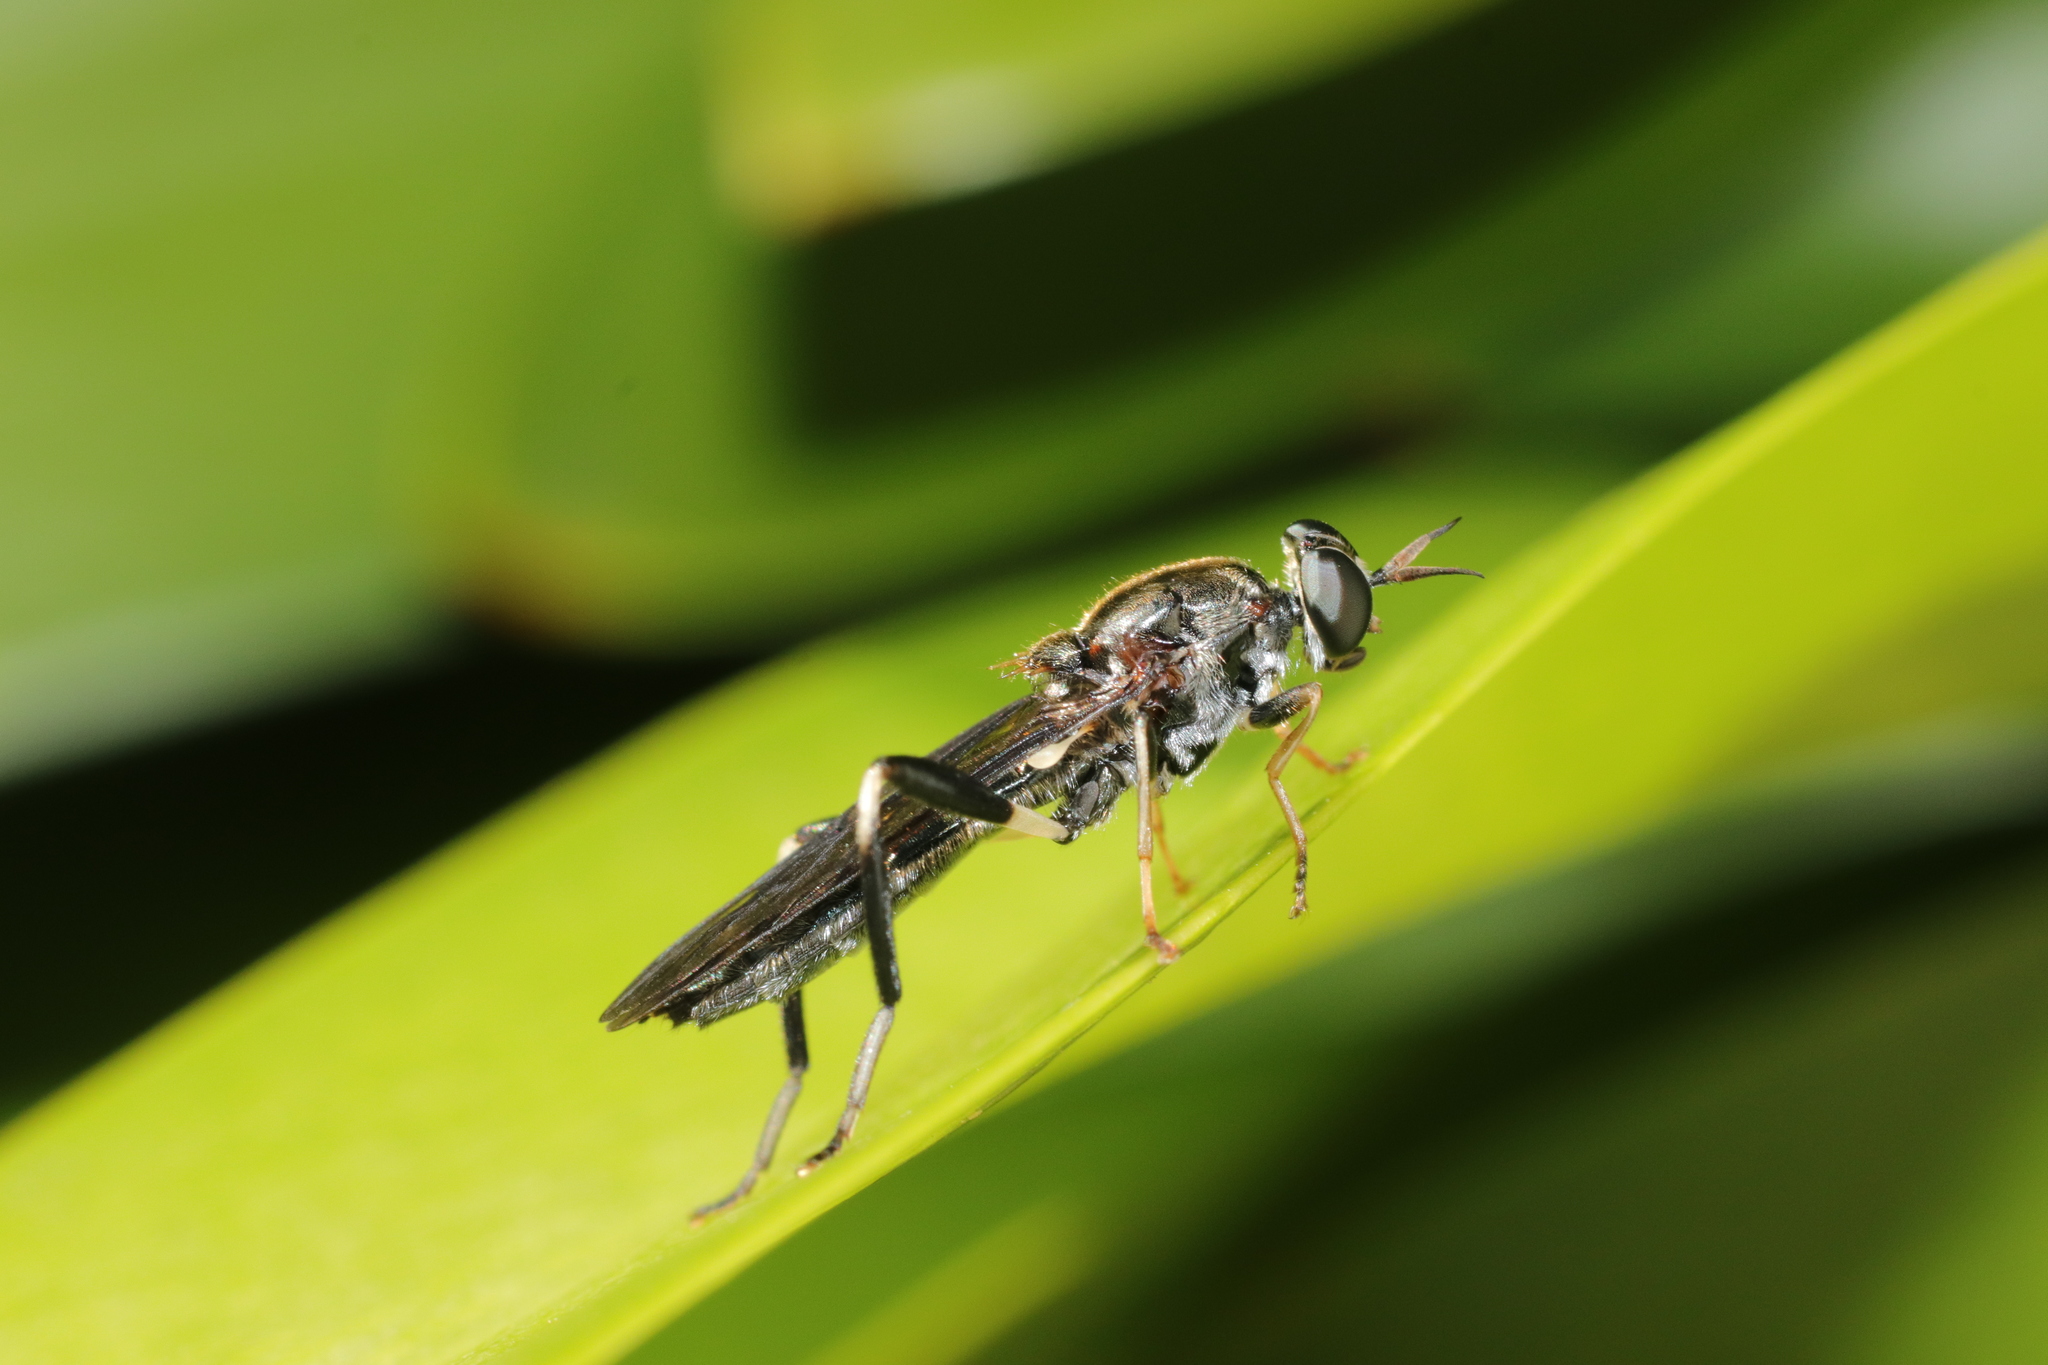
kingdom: Animalia
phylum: Arthropoda
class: Insecta
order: Diptera
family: Stratiomyidae
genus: Exaireta
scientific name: Exaireta spinigera
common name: Blue soldier fly
